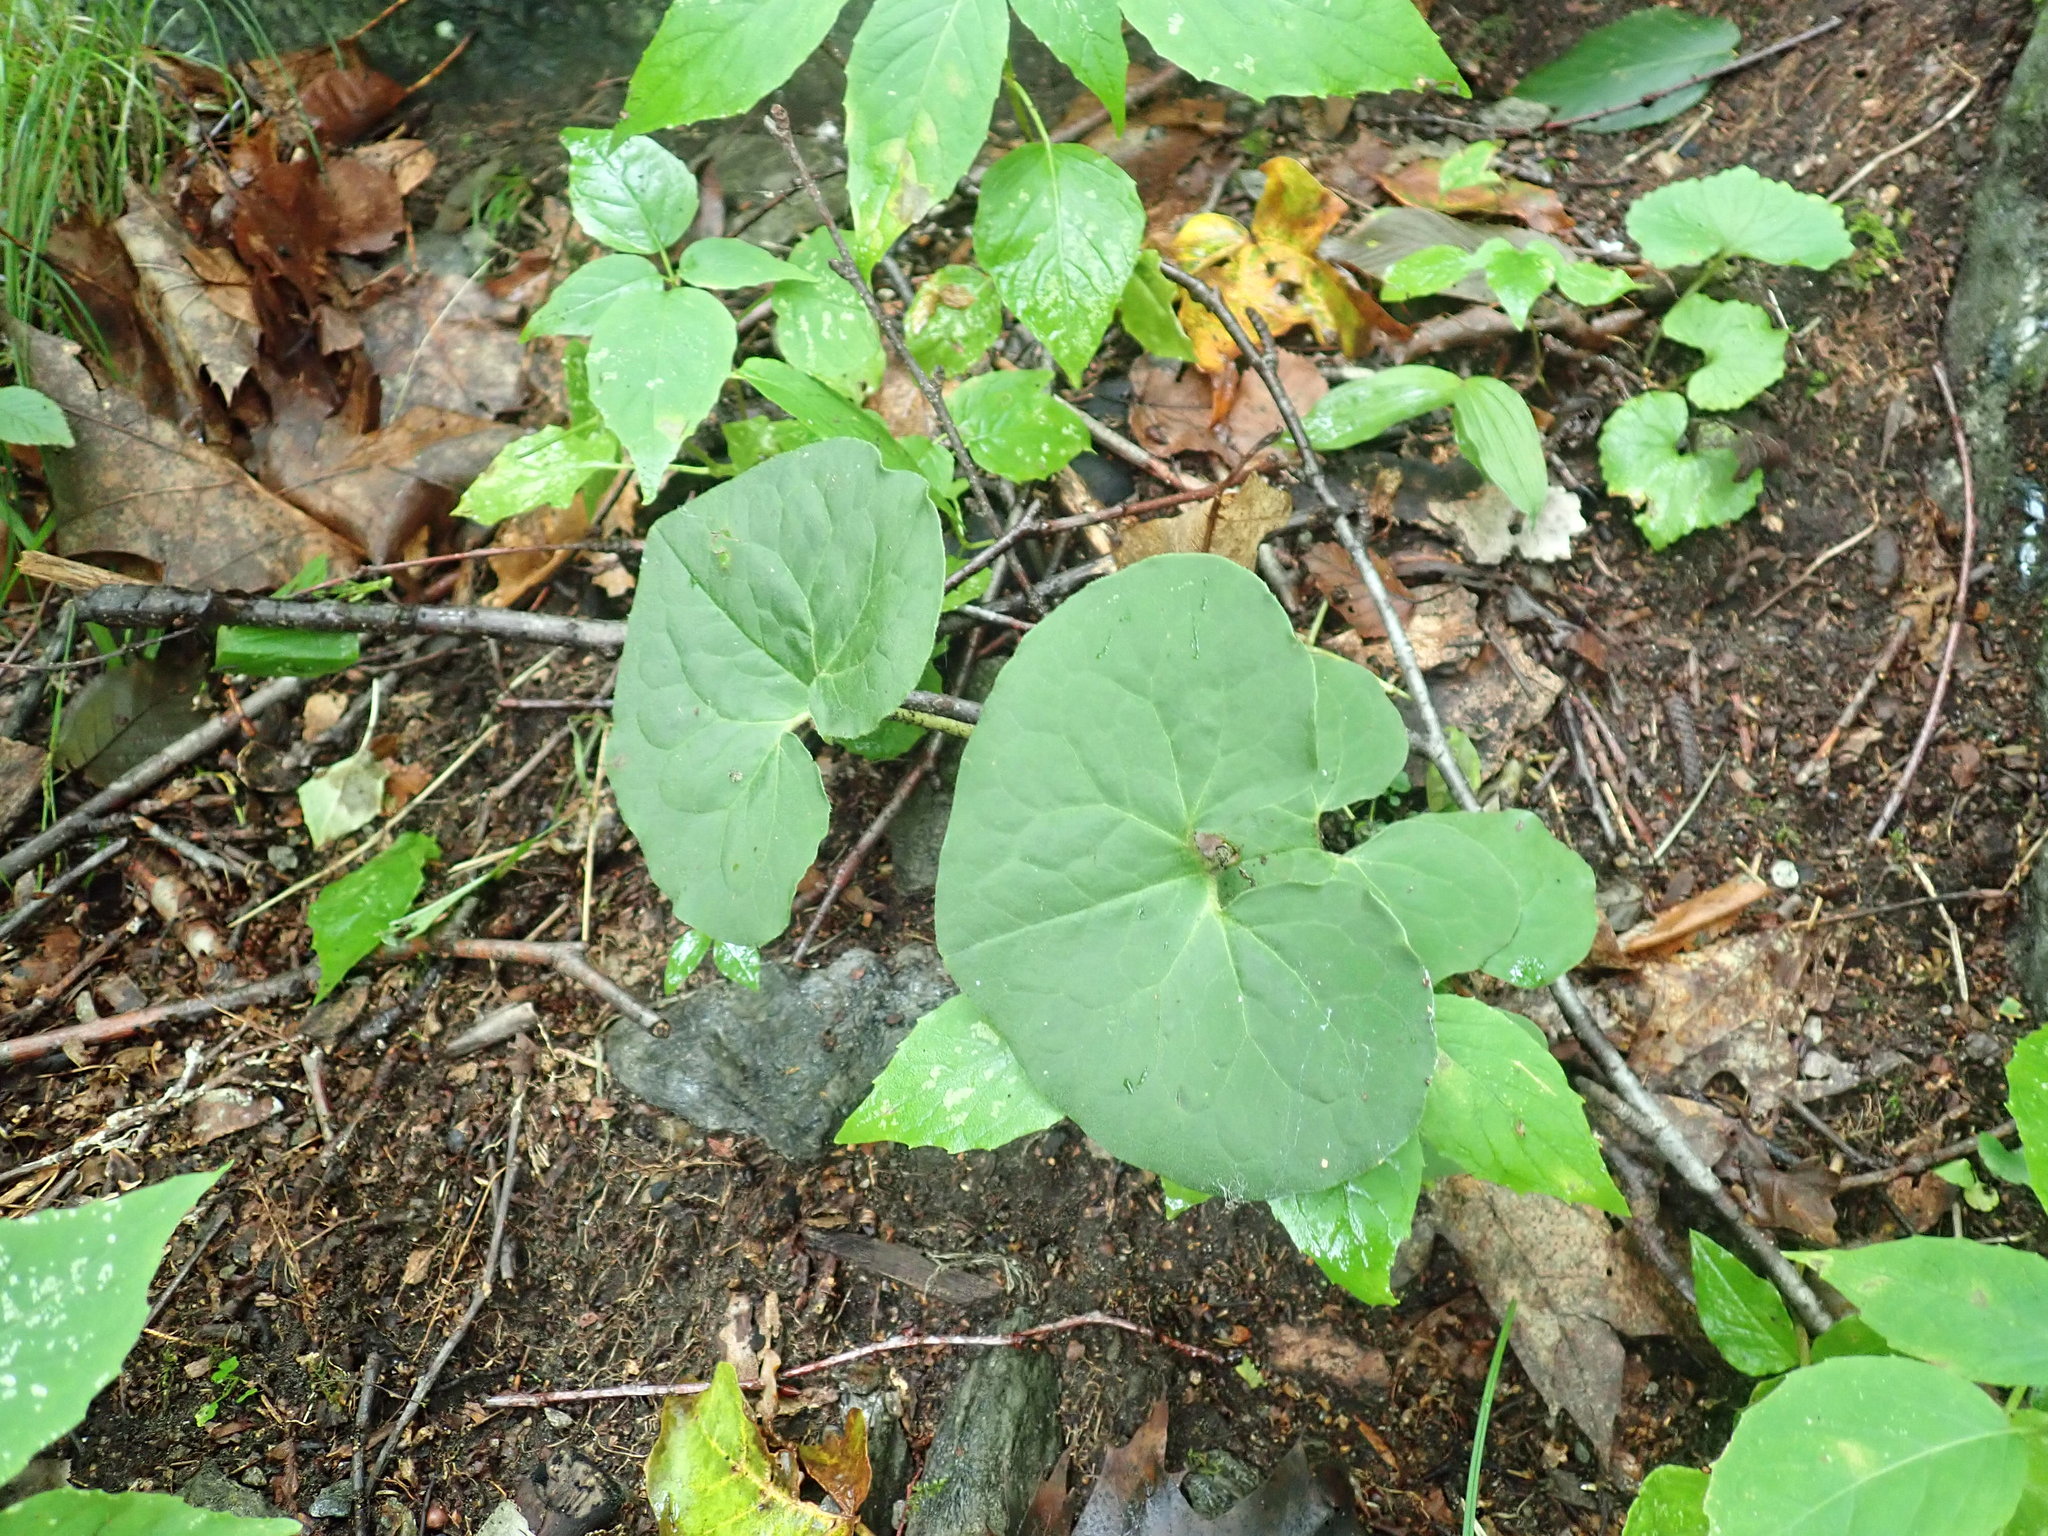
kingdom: Plantae
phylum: Tracheophyta
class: Magnoliopsida
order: Piperales
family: Aristolochiaceae
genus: Asarum
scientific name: Asarum canadense
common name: Wild ginger
